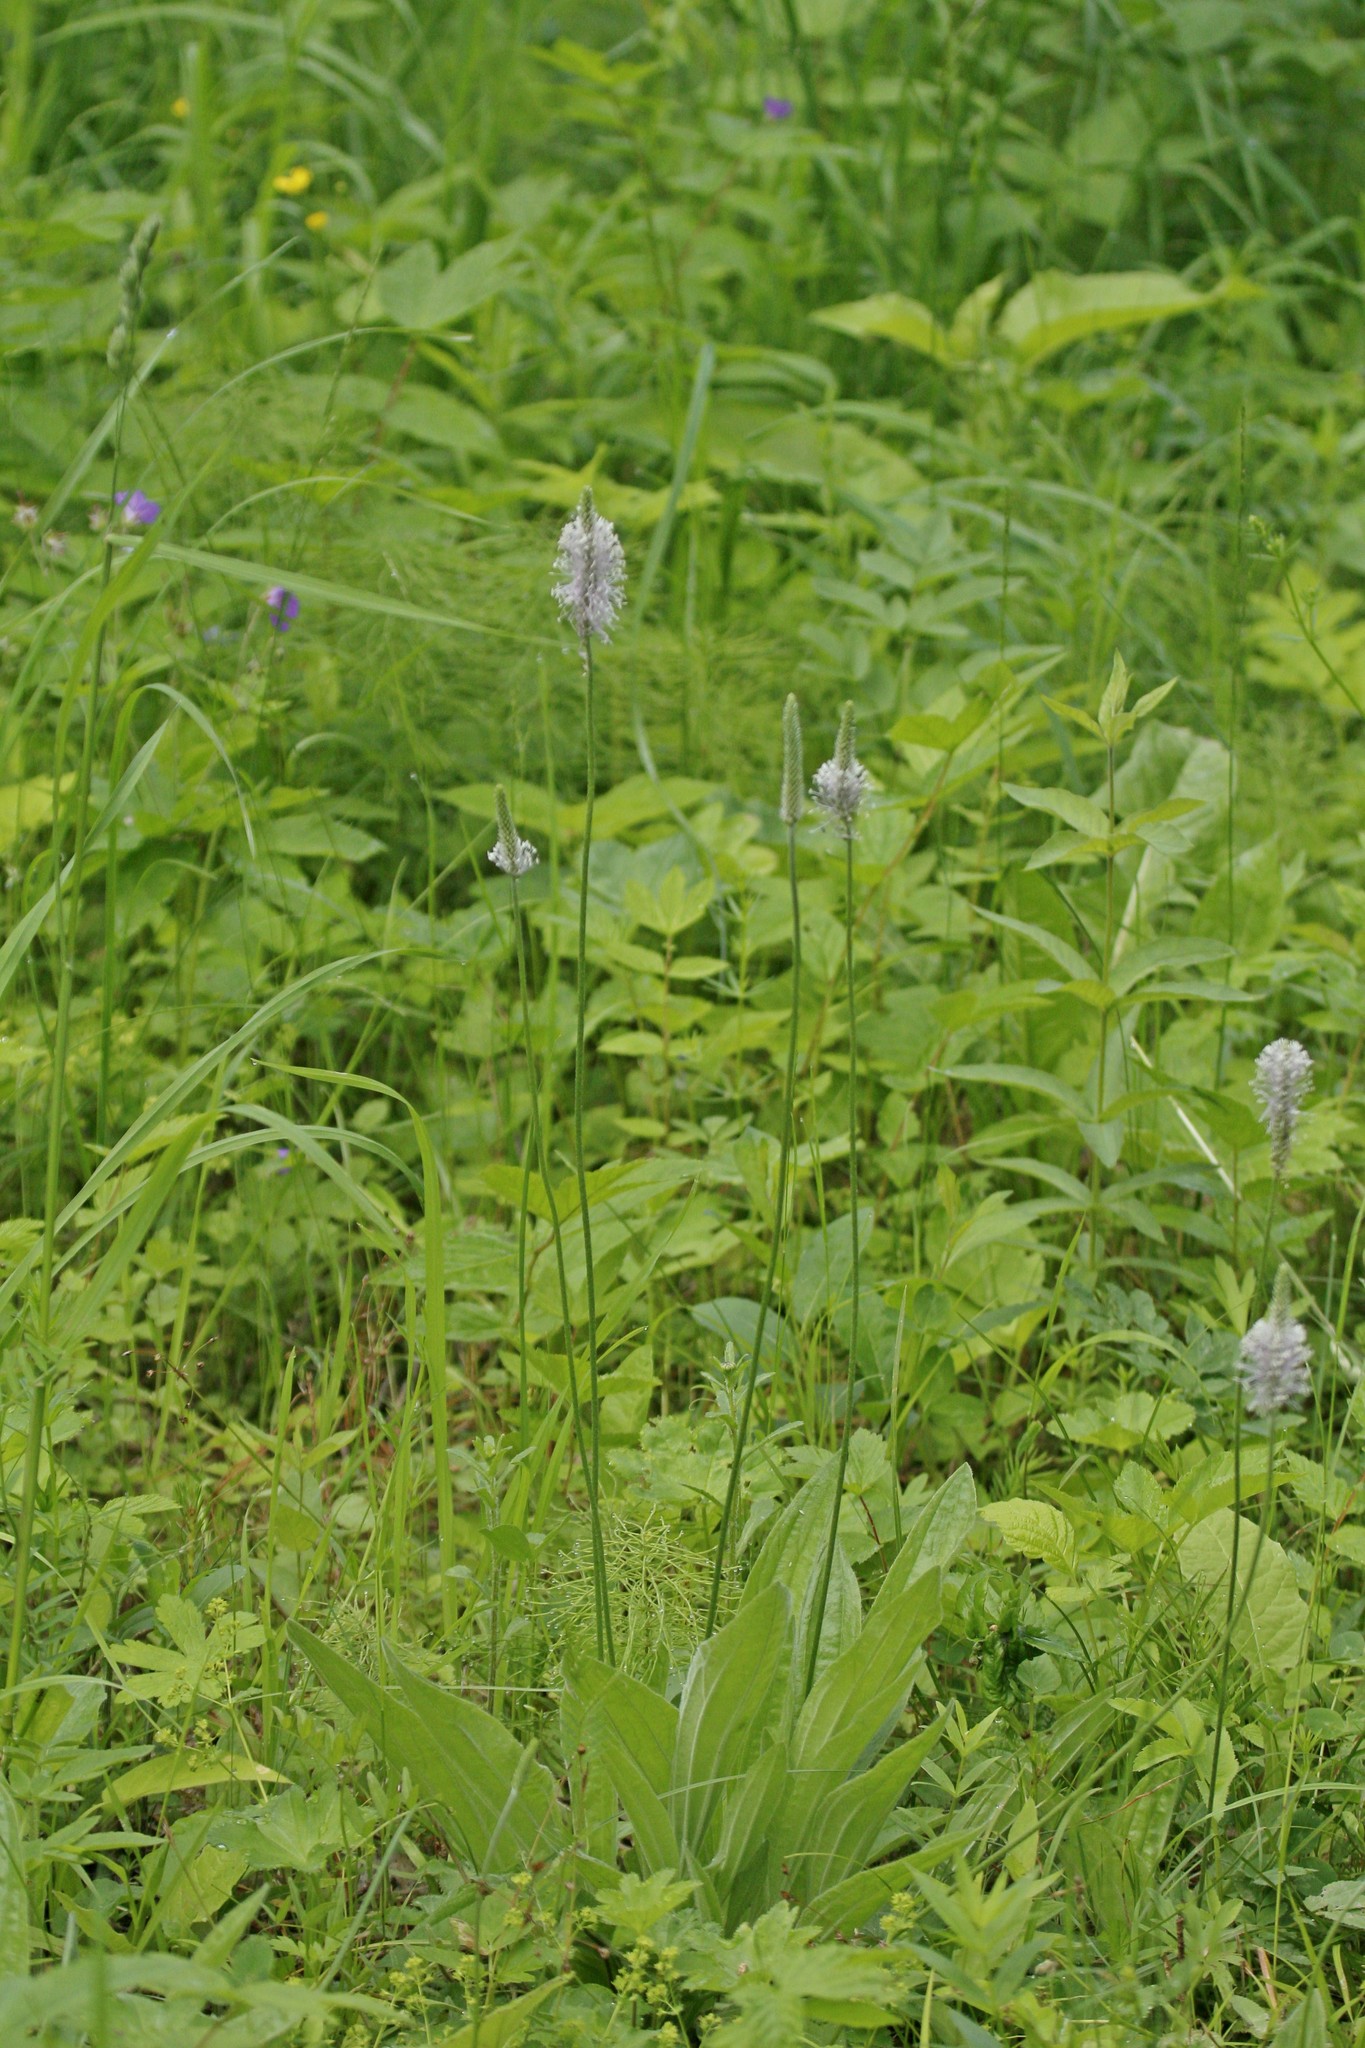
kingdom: Plantae
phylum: Tracheophyta
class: Magnoliopsida
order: Lamiales
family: Plantaginaceae
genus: Plantago
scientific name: Plantago media
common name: Hoary plantain
